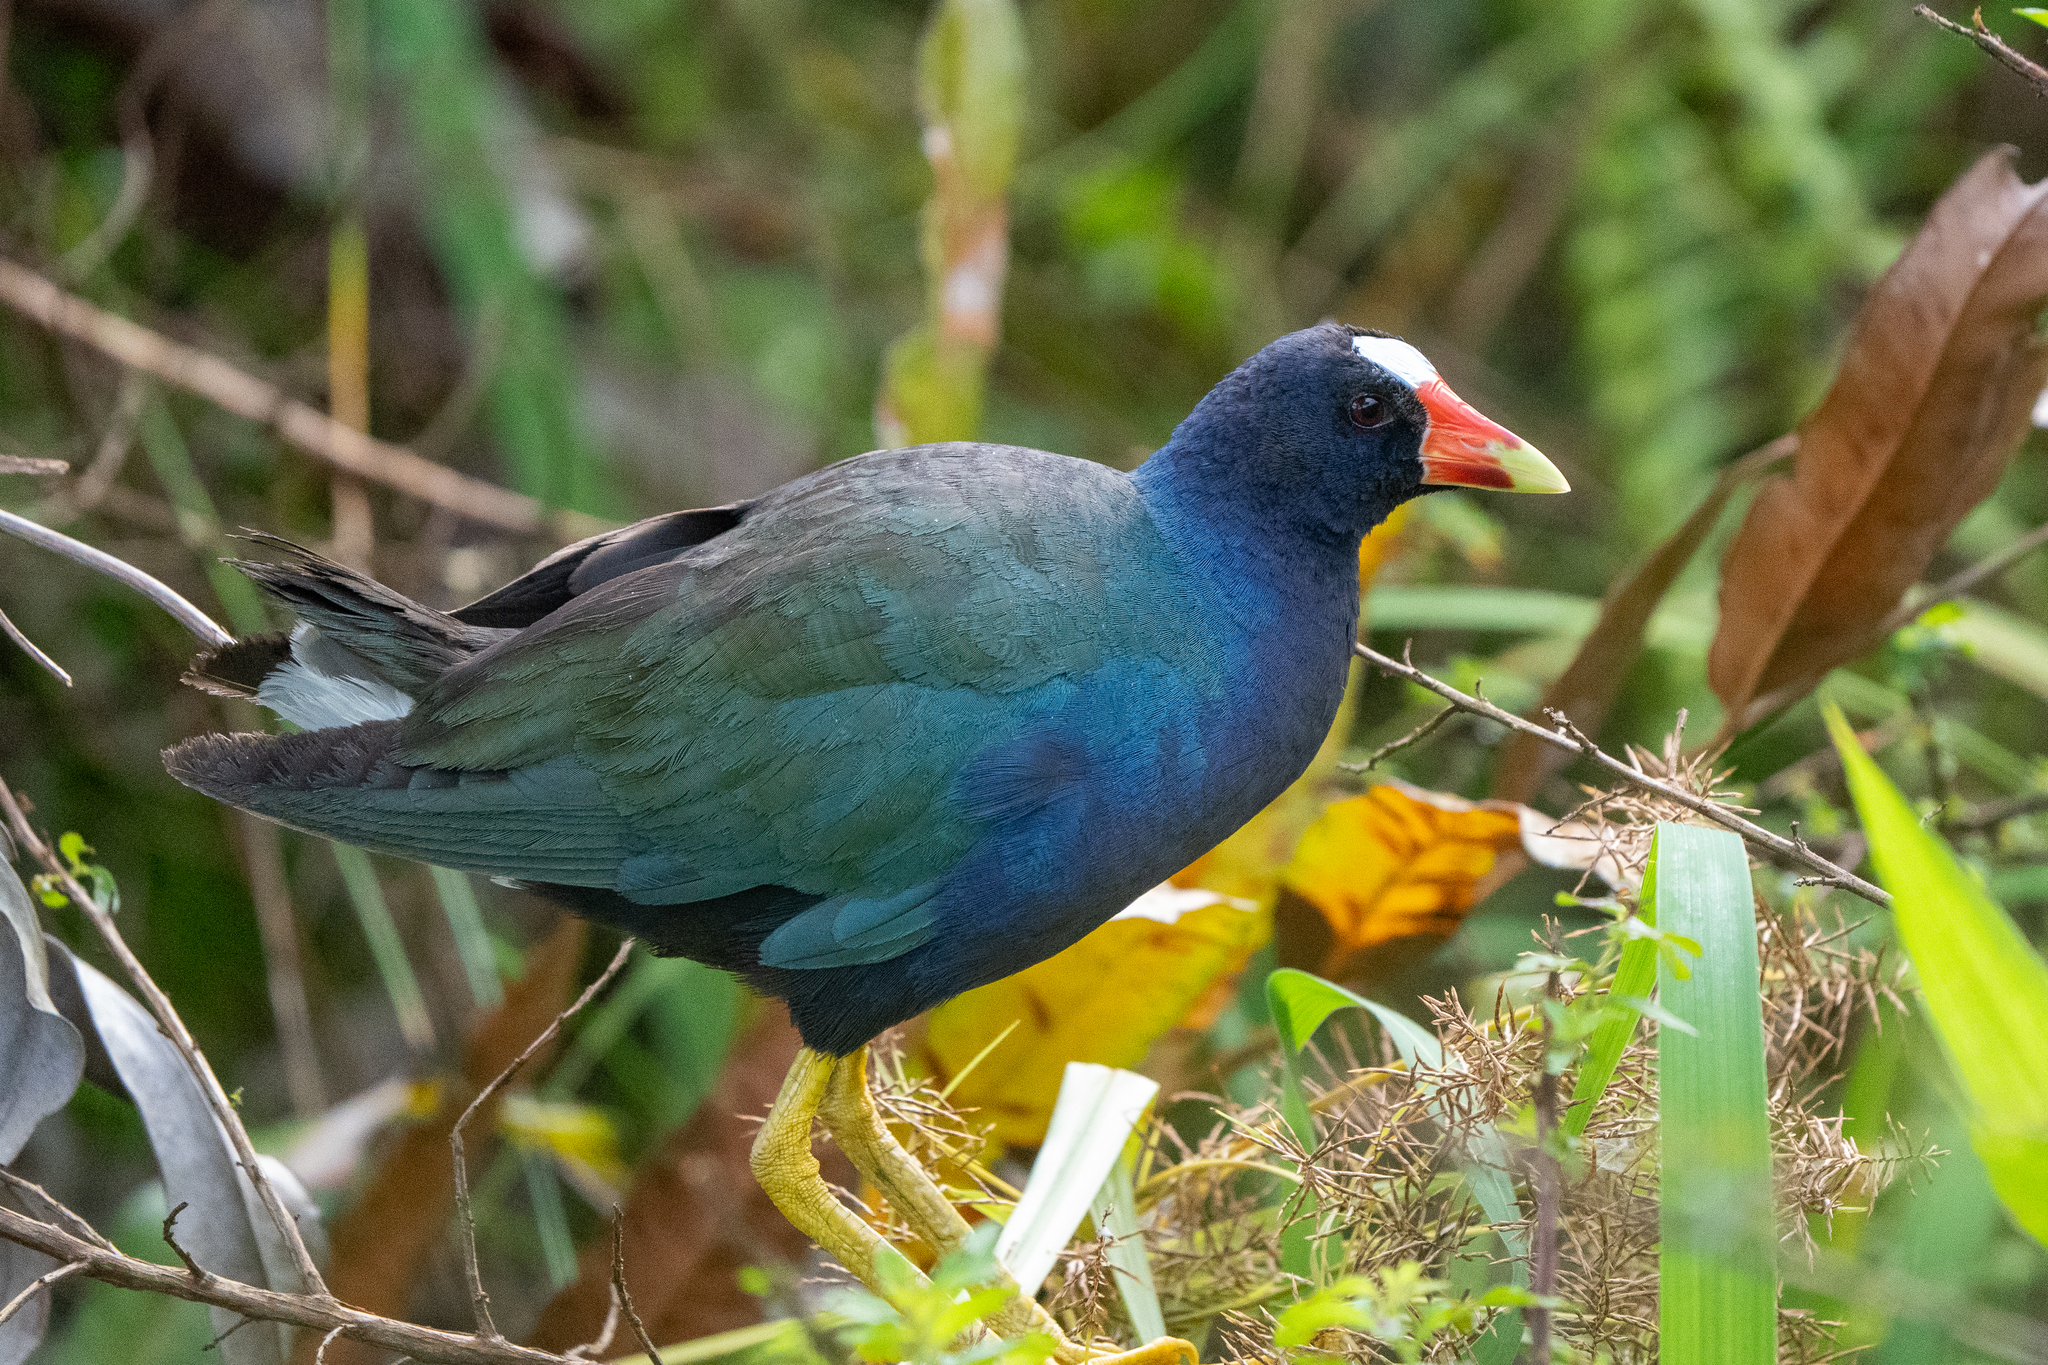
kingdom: Animalia
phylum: Chordata
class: Aves
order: Gruiformes
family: Rallidae
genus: Porphyrio
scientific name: Porphyrio martinica
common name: Purple gallinule
